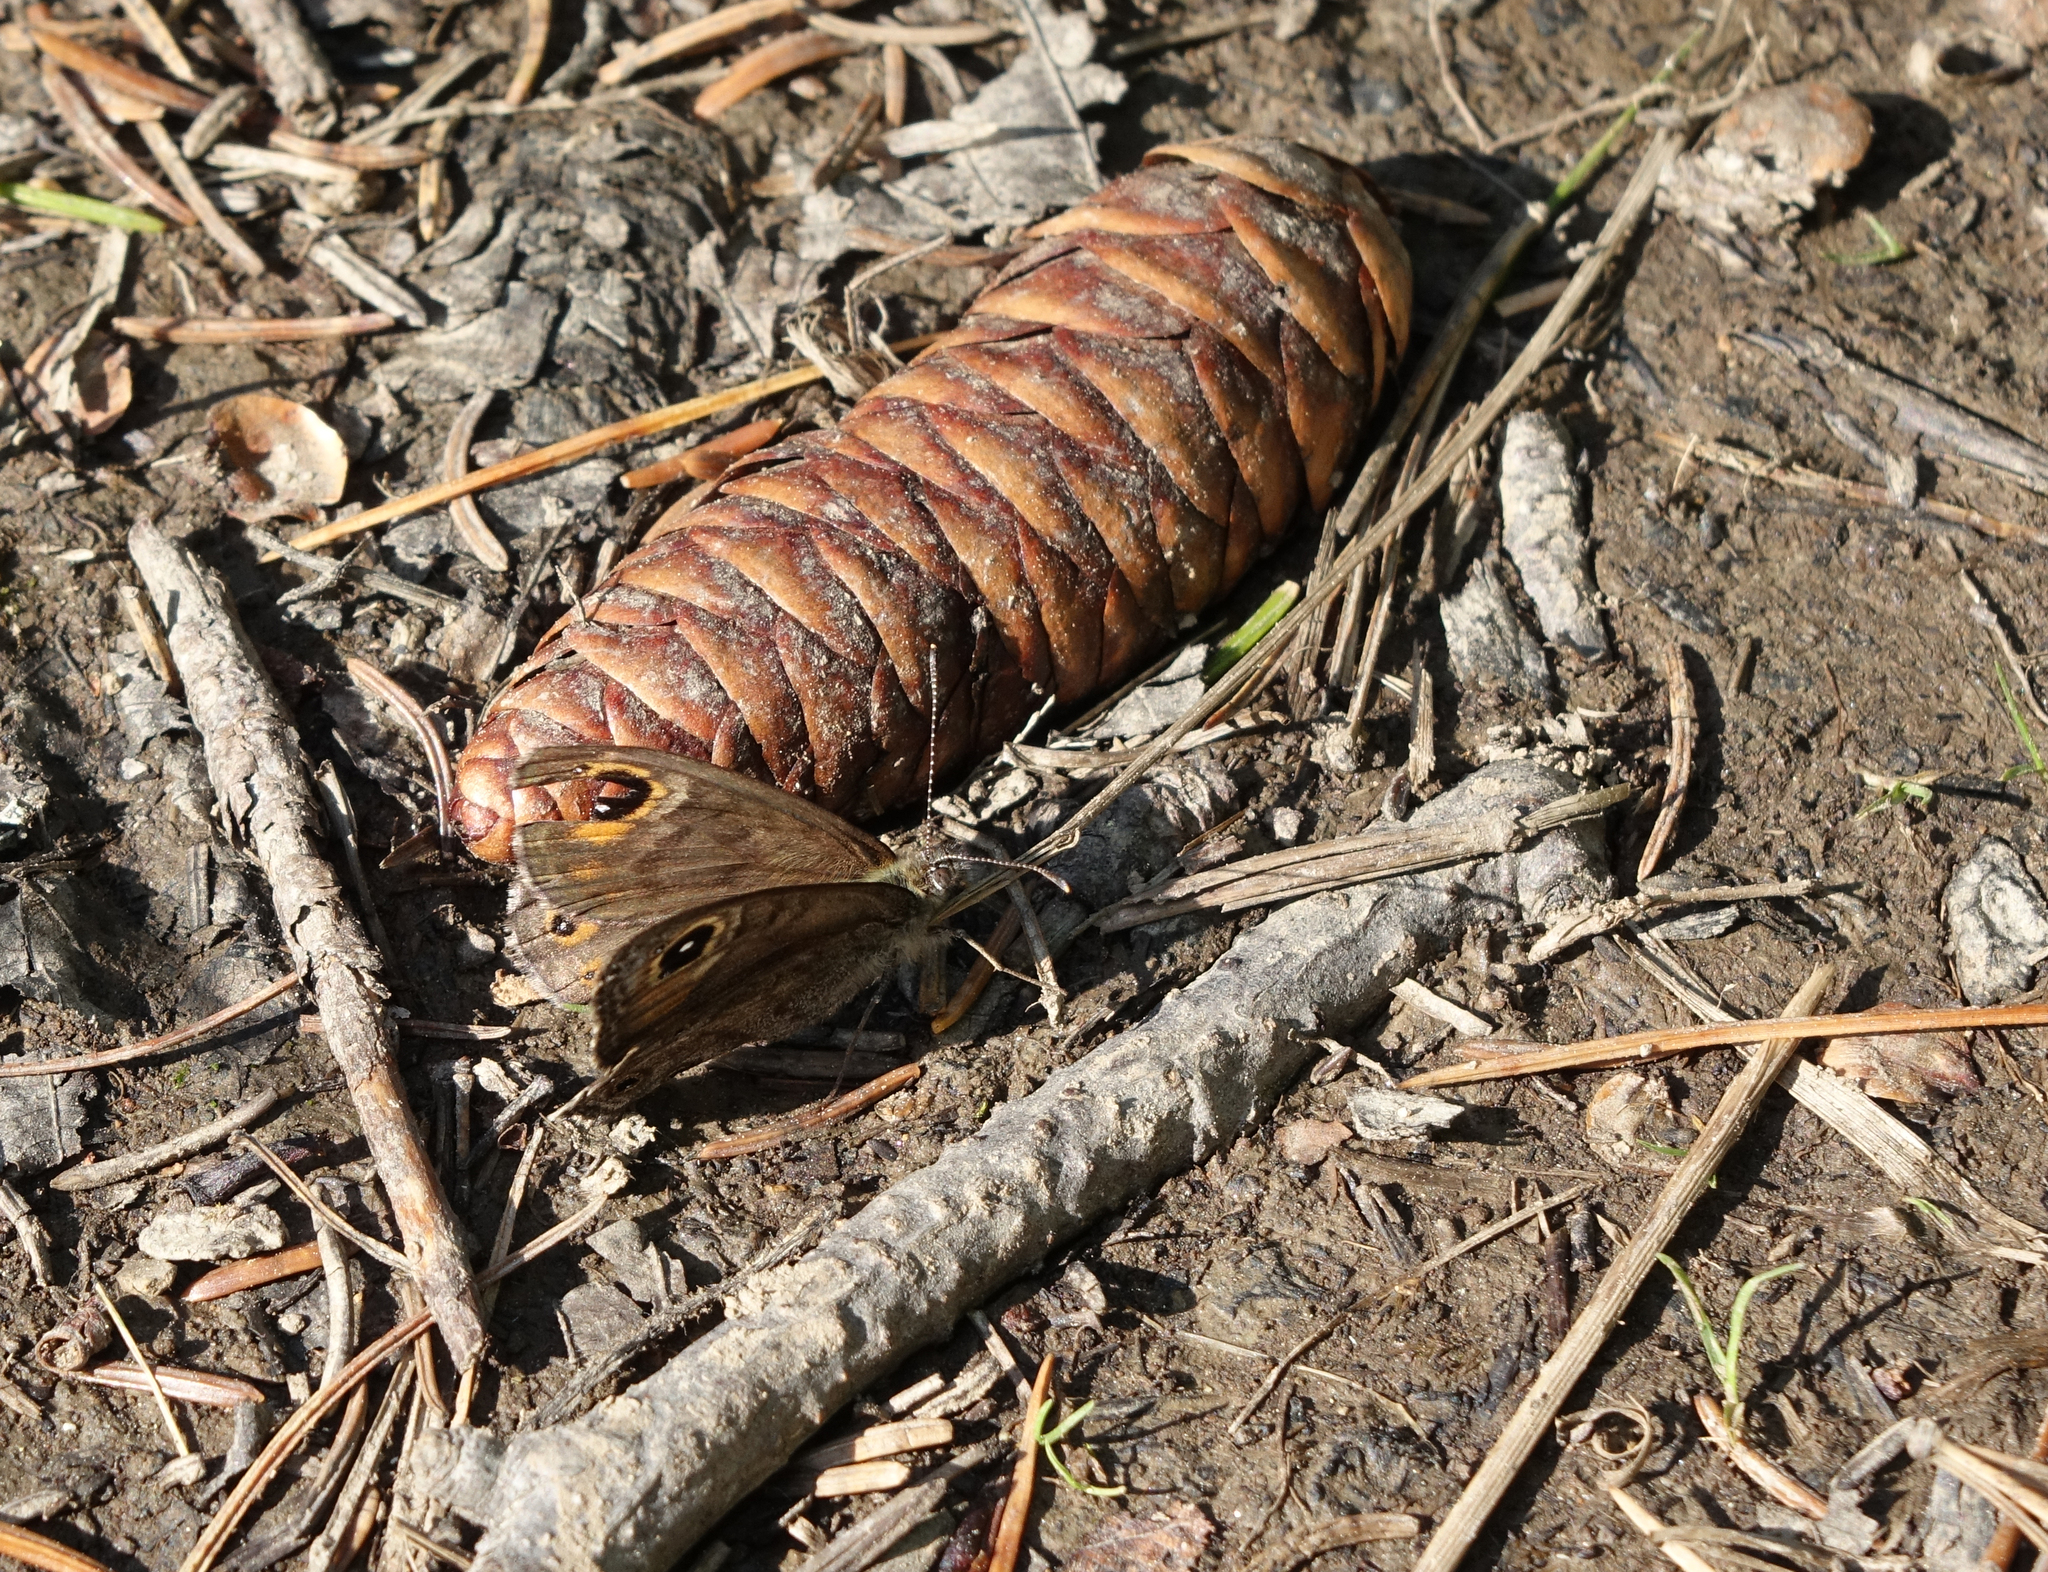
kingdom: Plantae
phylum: Tracheophyta
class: Pinopsida
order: Pinales
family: Pinaceae
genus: Picea
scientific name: Picea obovata
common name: Siberian spruce
